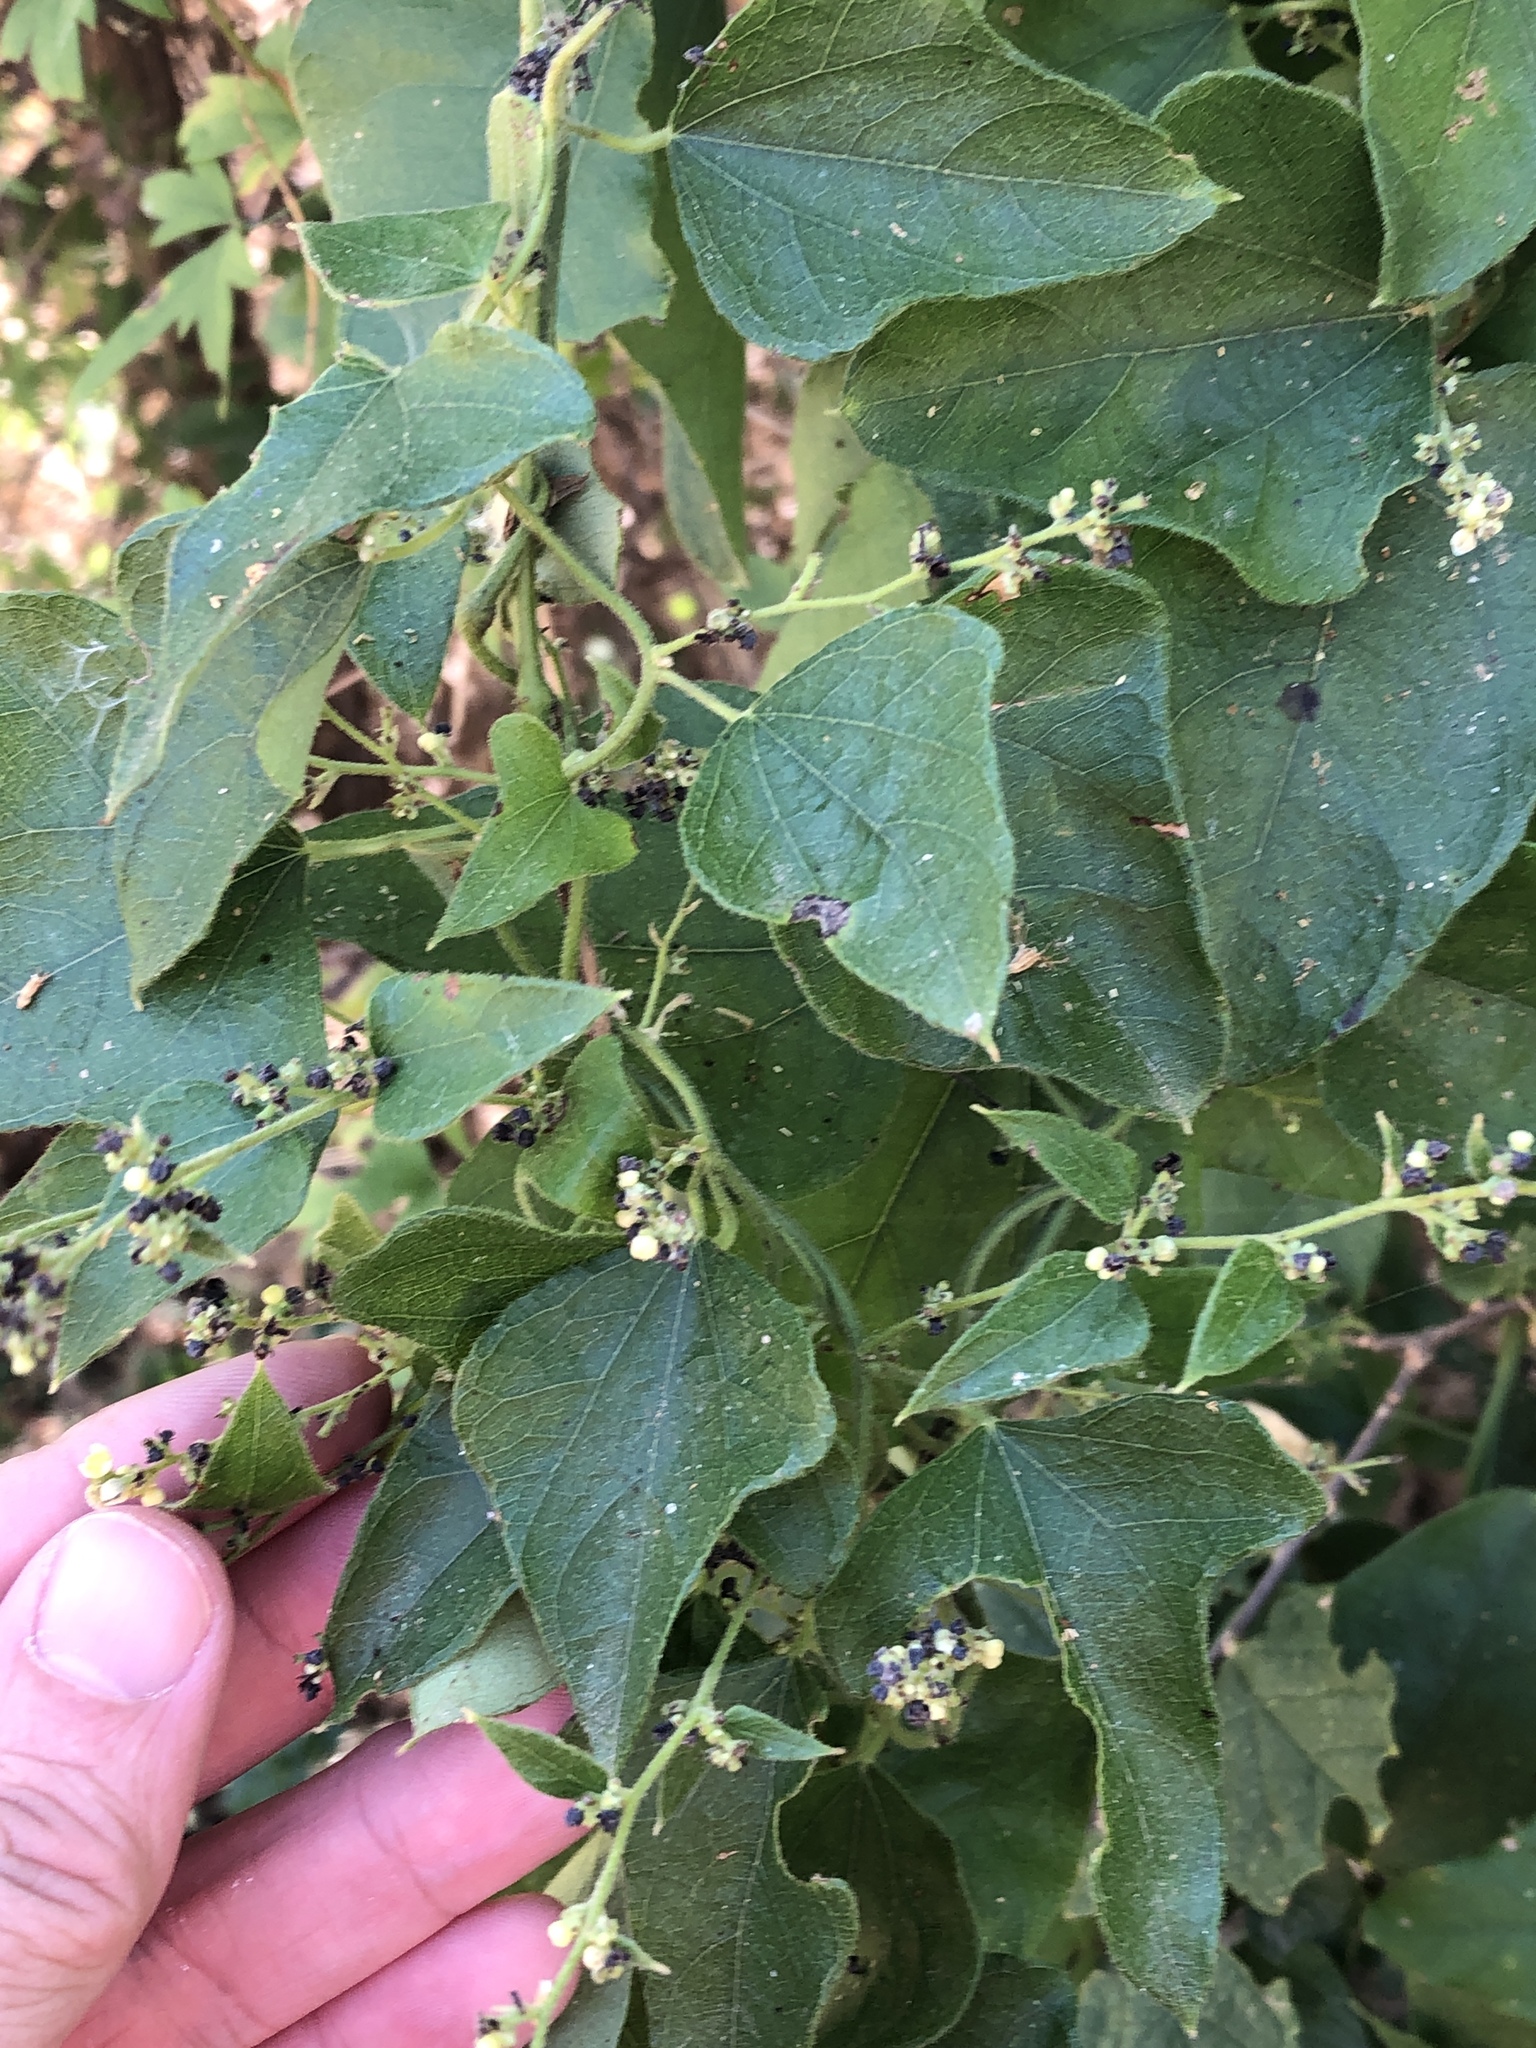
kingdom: Plantae
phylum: Tracheophyta
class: Magnoliopsida
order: Ranunculales
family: Menispermaceae
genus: Cocculus
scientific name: Cocculus carolinus
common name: Carolina moonseed
